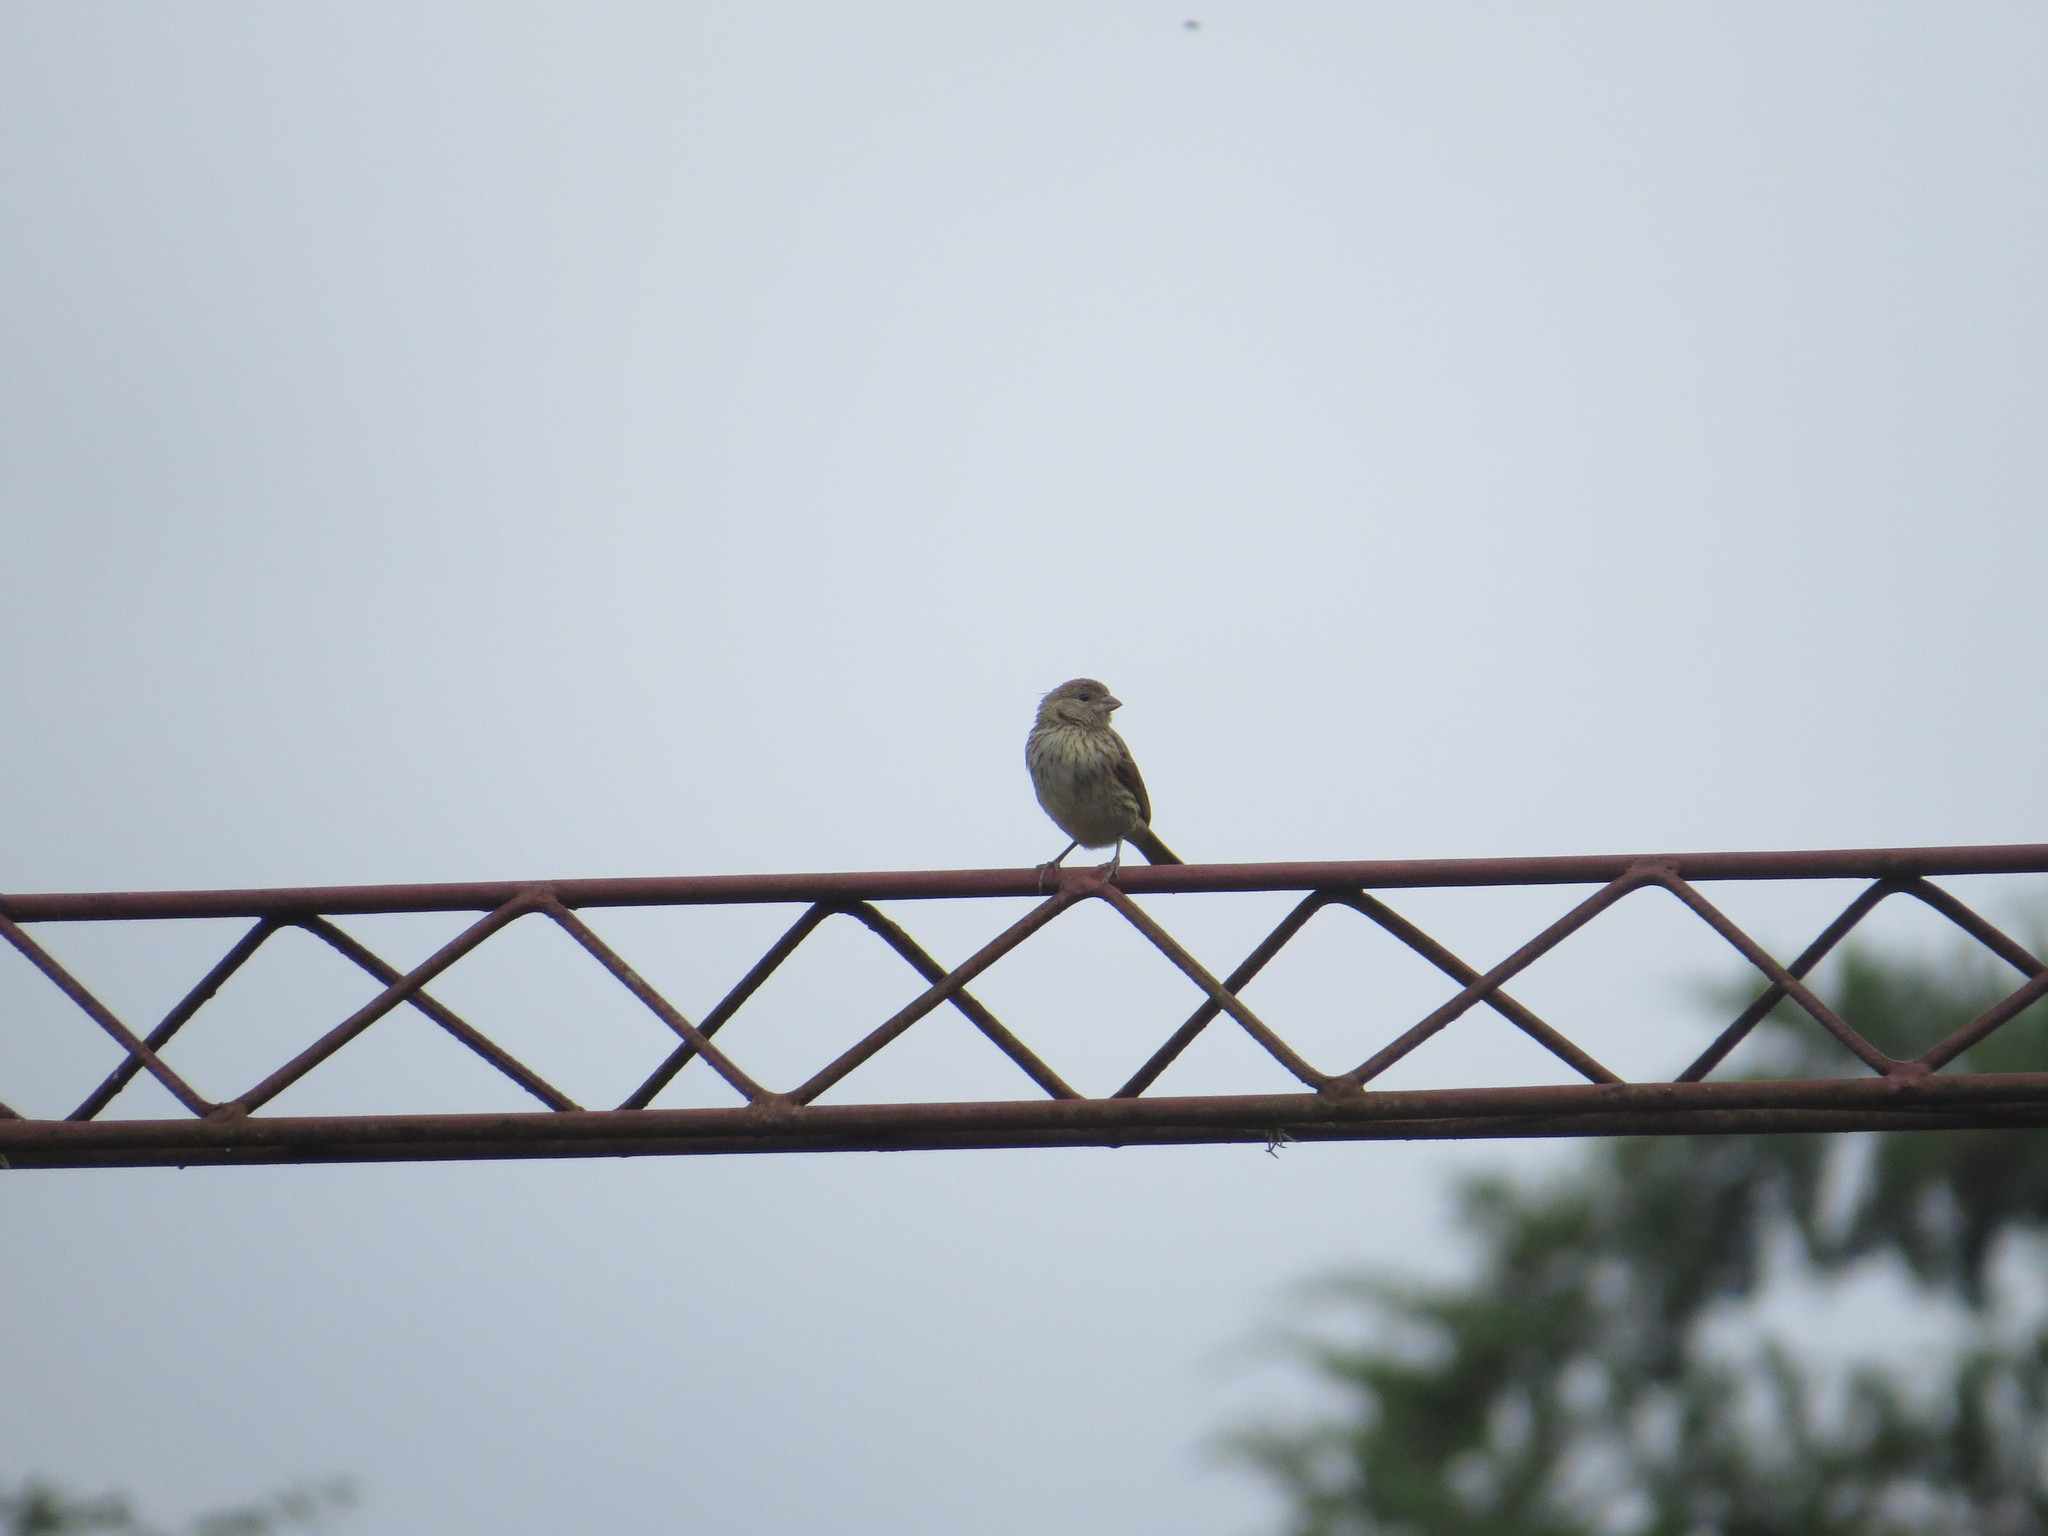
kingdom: Animalia
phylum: Chordata
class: Aves
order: Passeriformes
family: Thraupidae
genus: Sicalis
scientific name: Sicalis flaveola
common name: Saffron finch
